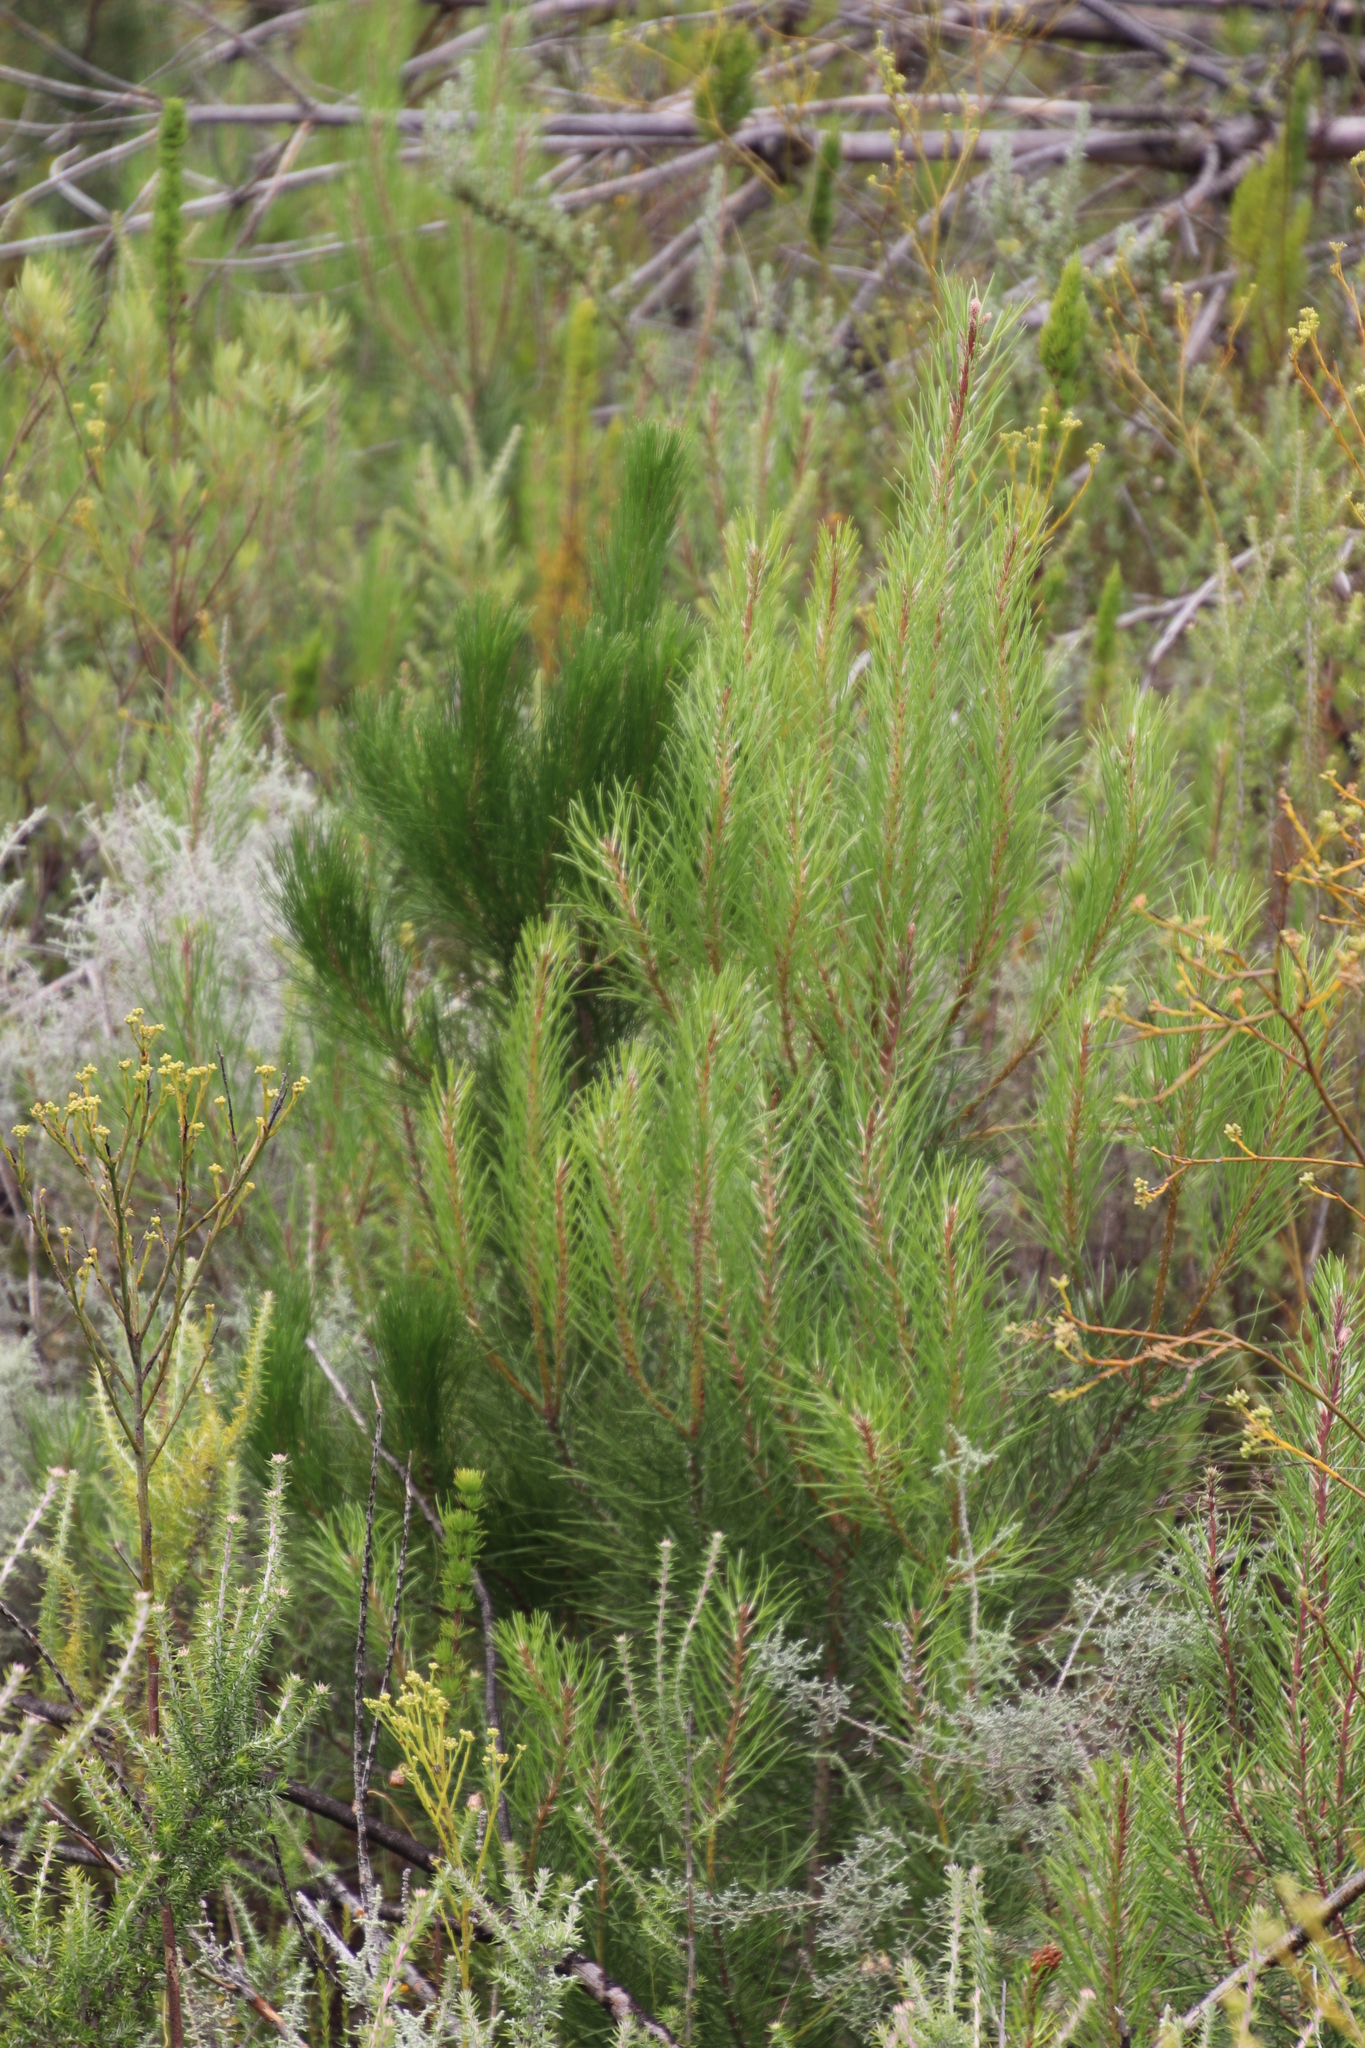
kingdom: Plantae
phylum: Tracheophyta
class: Pinopsida
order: Pinales
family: Pinaceae
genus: Pinus
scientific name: Pinus radiata
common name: Monterey pine
